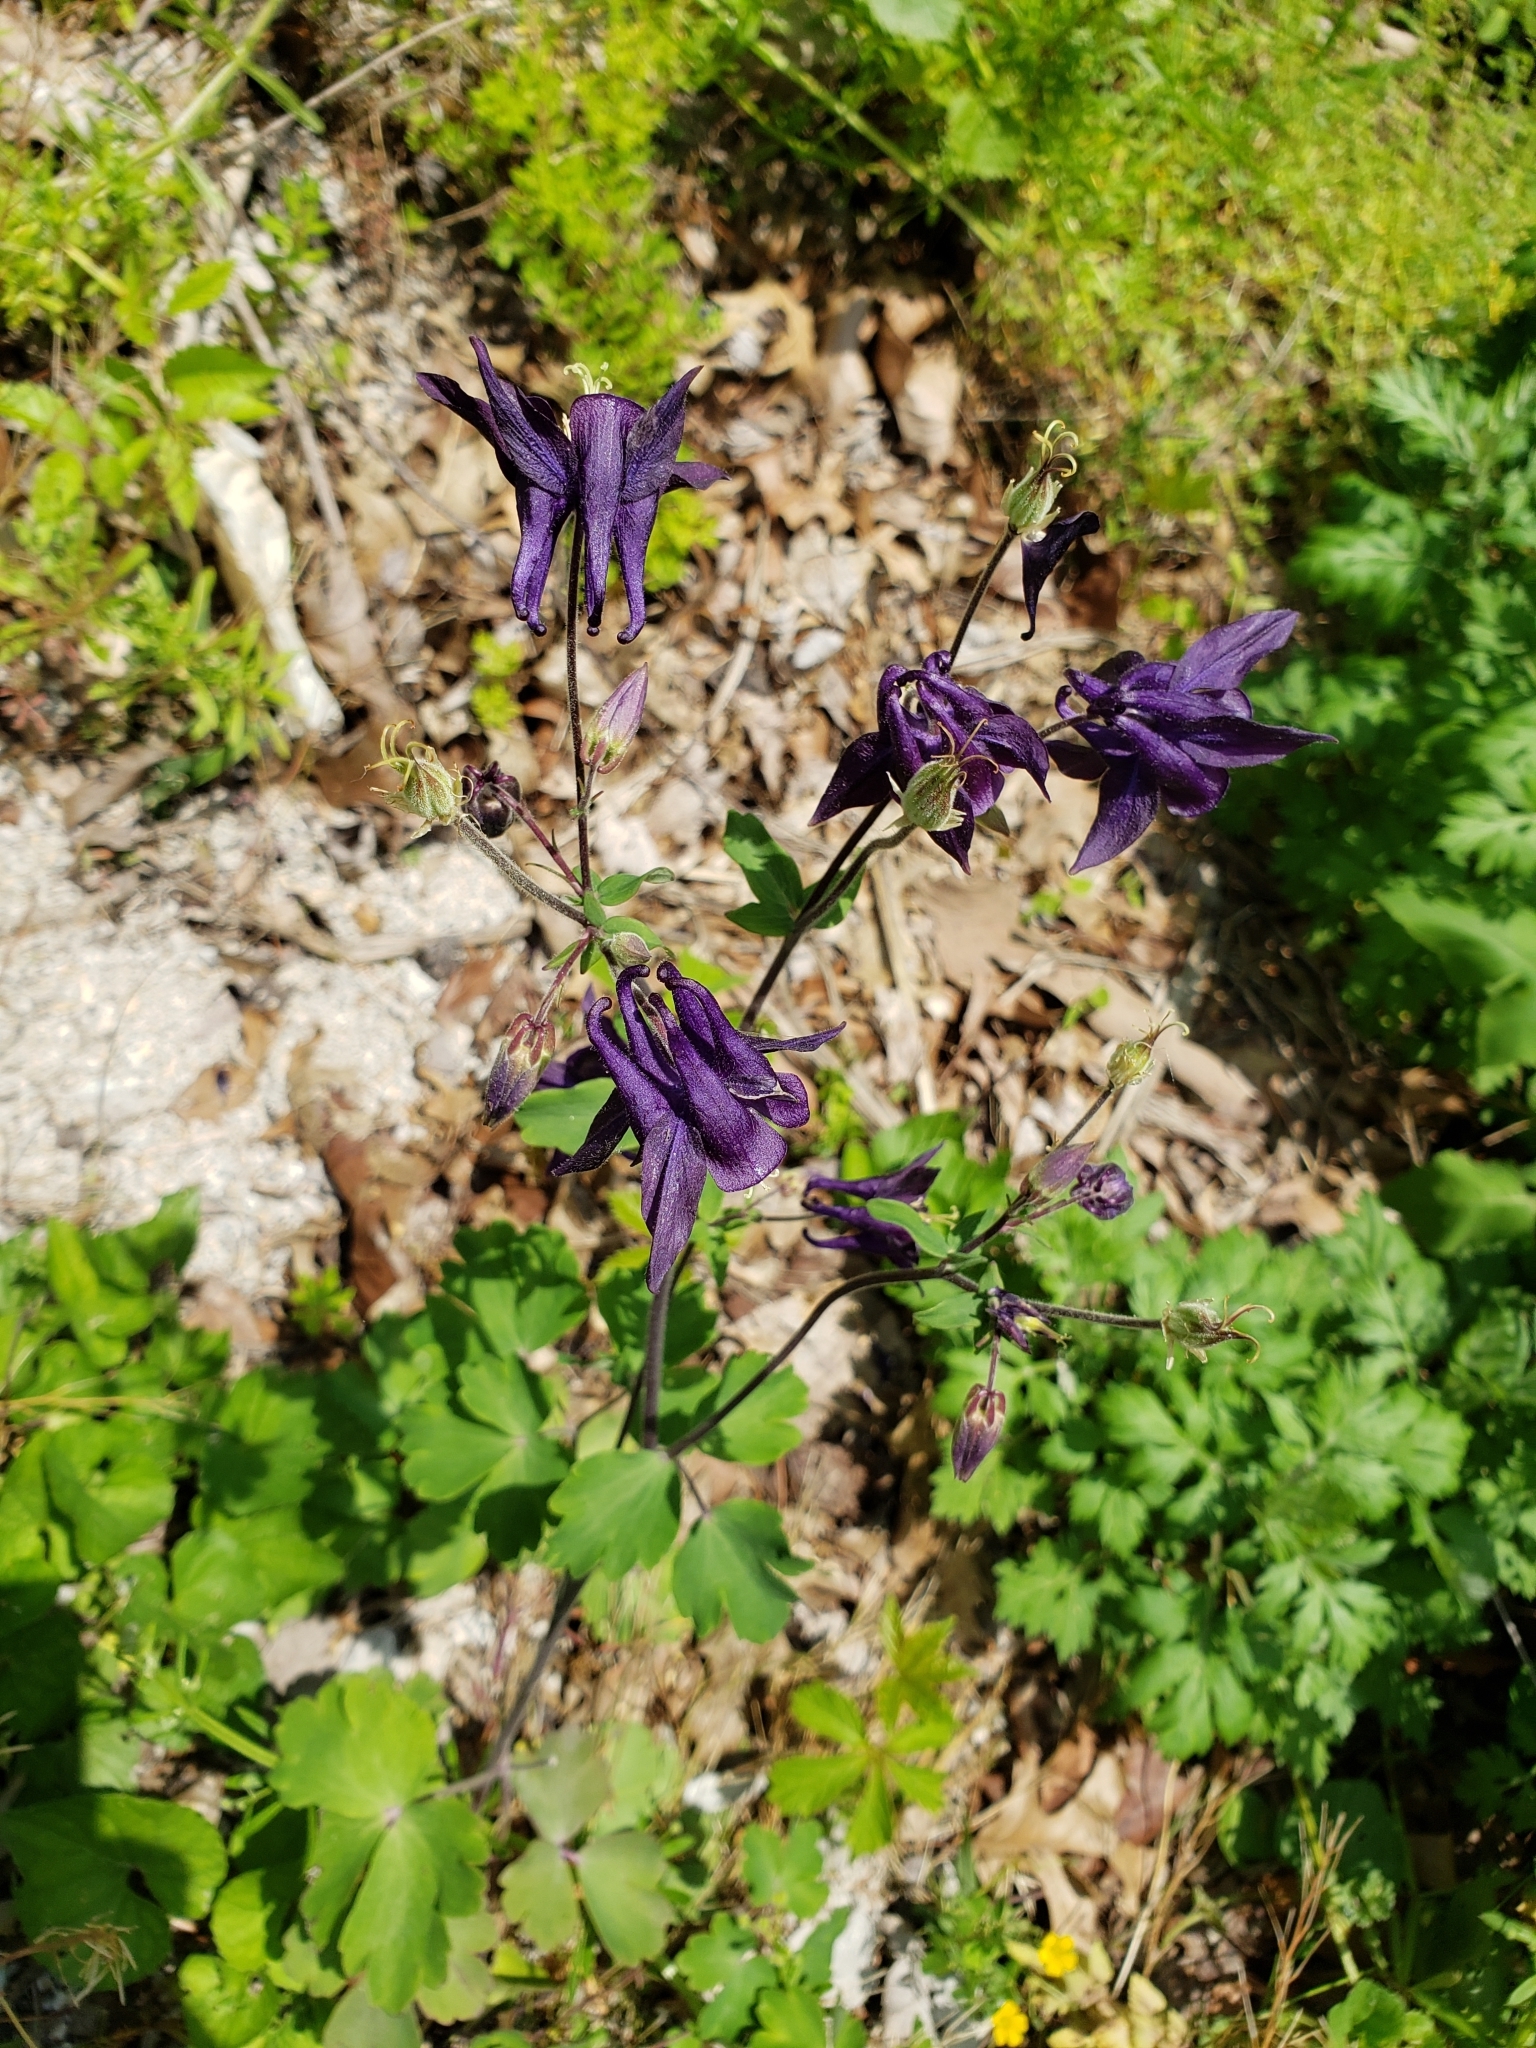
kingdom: Plantae
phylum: Tracheophyta
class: Magnoliopsida
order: Ranunculales
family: Ranunculaceae
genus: Aquilegia
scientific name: Aquilegia vulgaris
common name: Columbine
